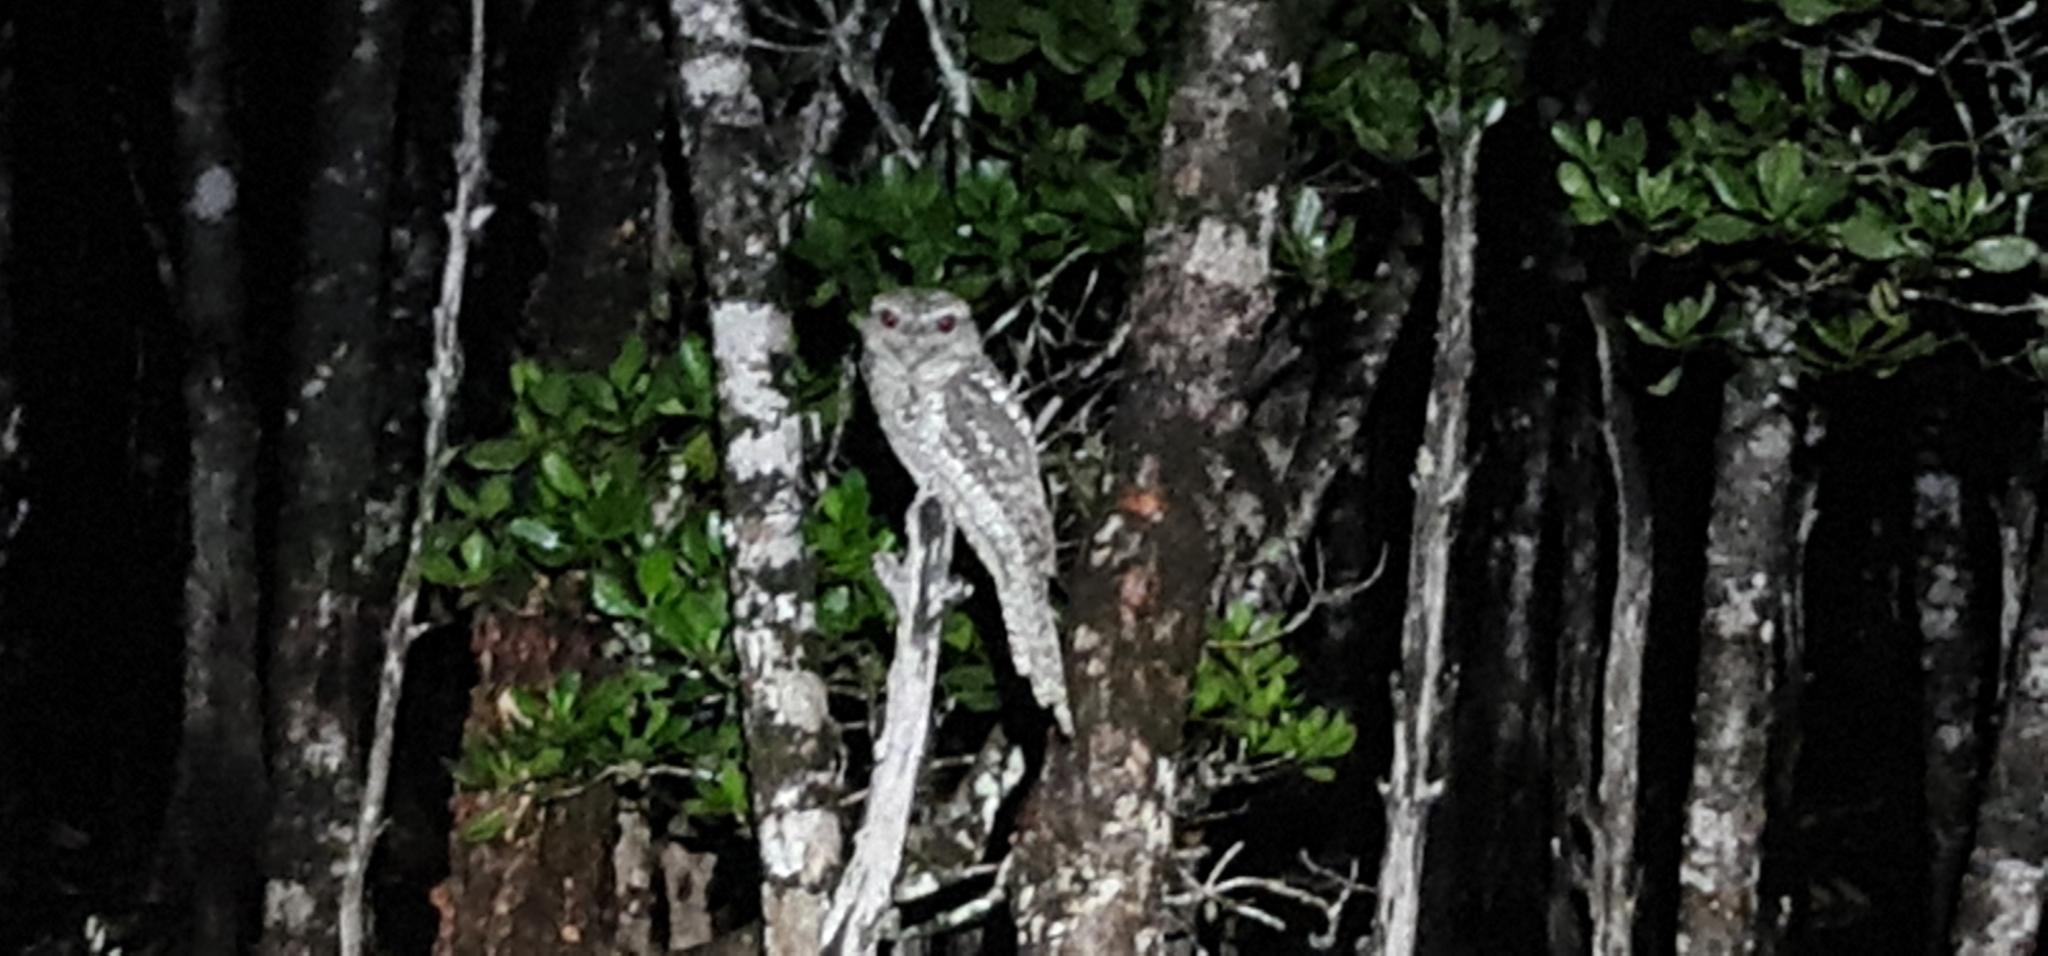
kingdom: Animalia
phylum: Chordata
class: Aves
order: Caprimulgiformes
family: Podargidae
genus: Podargus
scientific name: Podargus papuensis
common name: Papuan frogmouth
